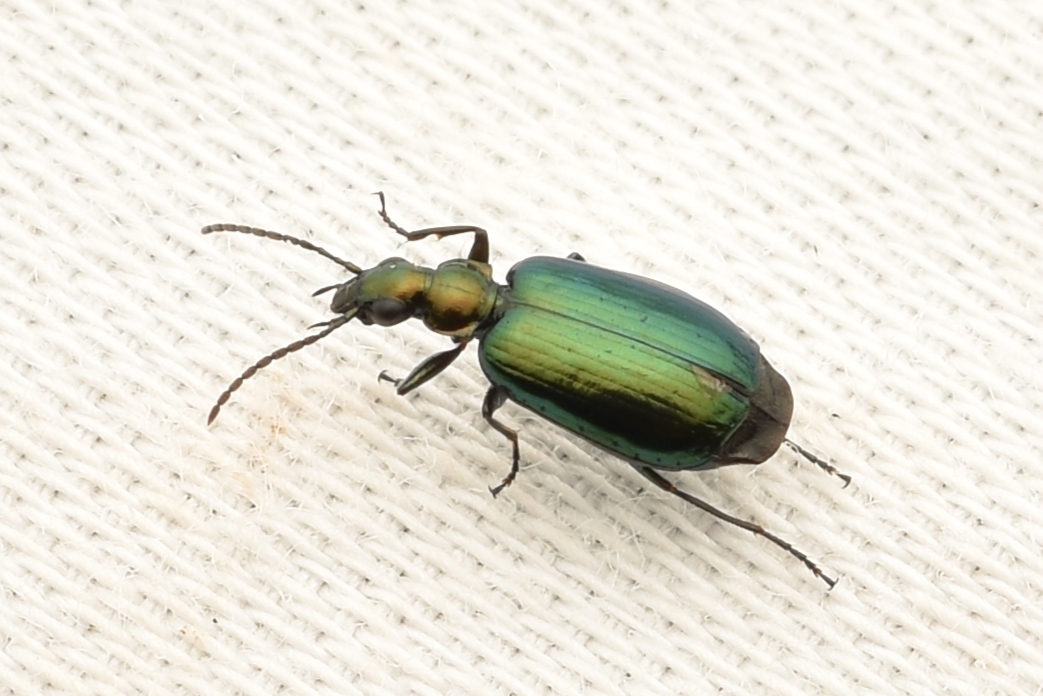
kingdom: Animalia
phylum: Arthropoda
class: Insecta
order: Coleoptera
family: Carabidae
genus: Lebia
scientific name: Lebia viridis
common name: Flower lebia beetle
